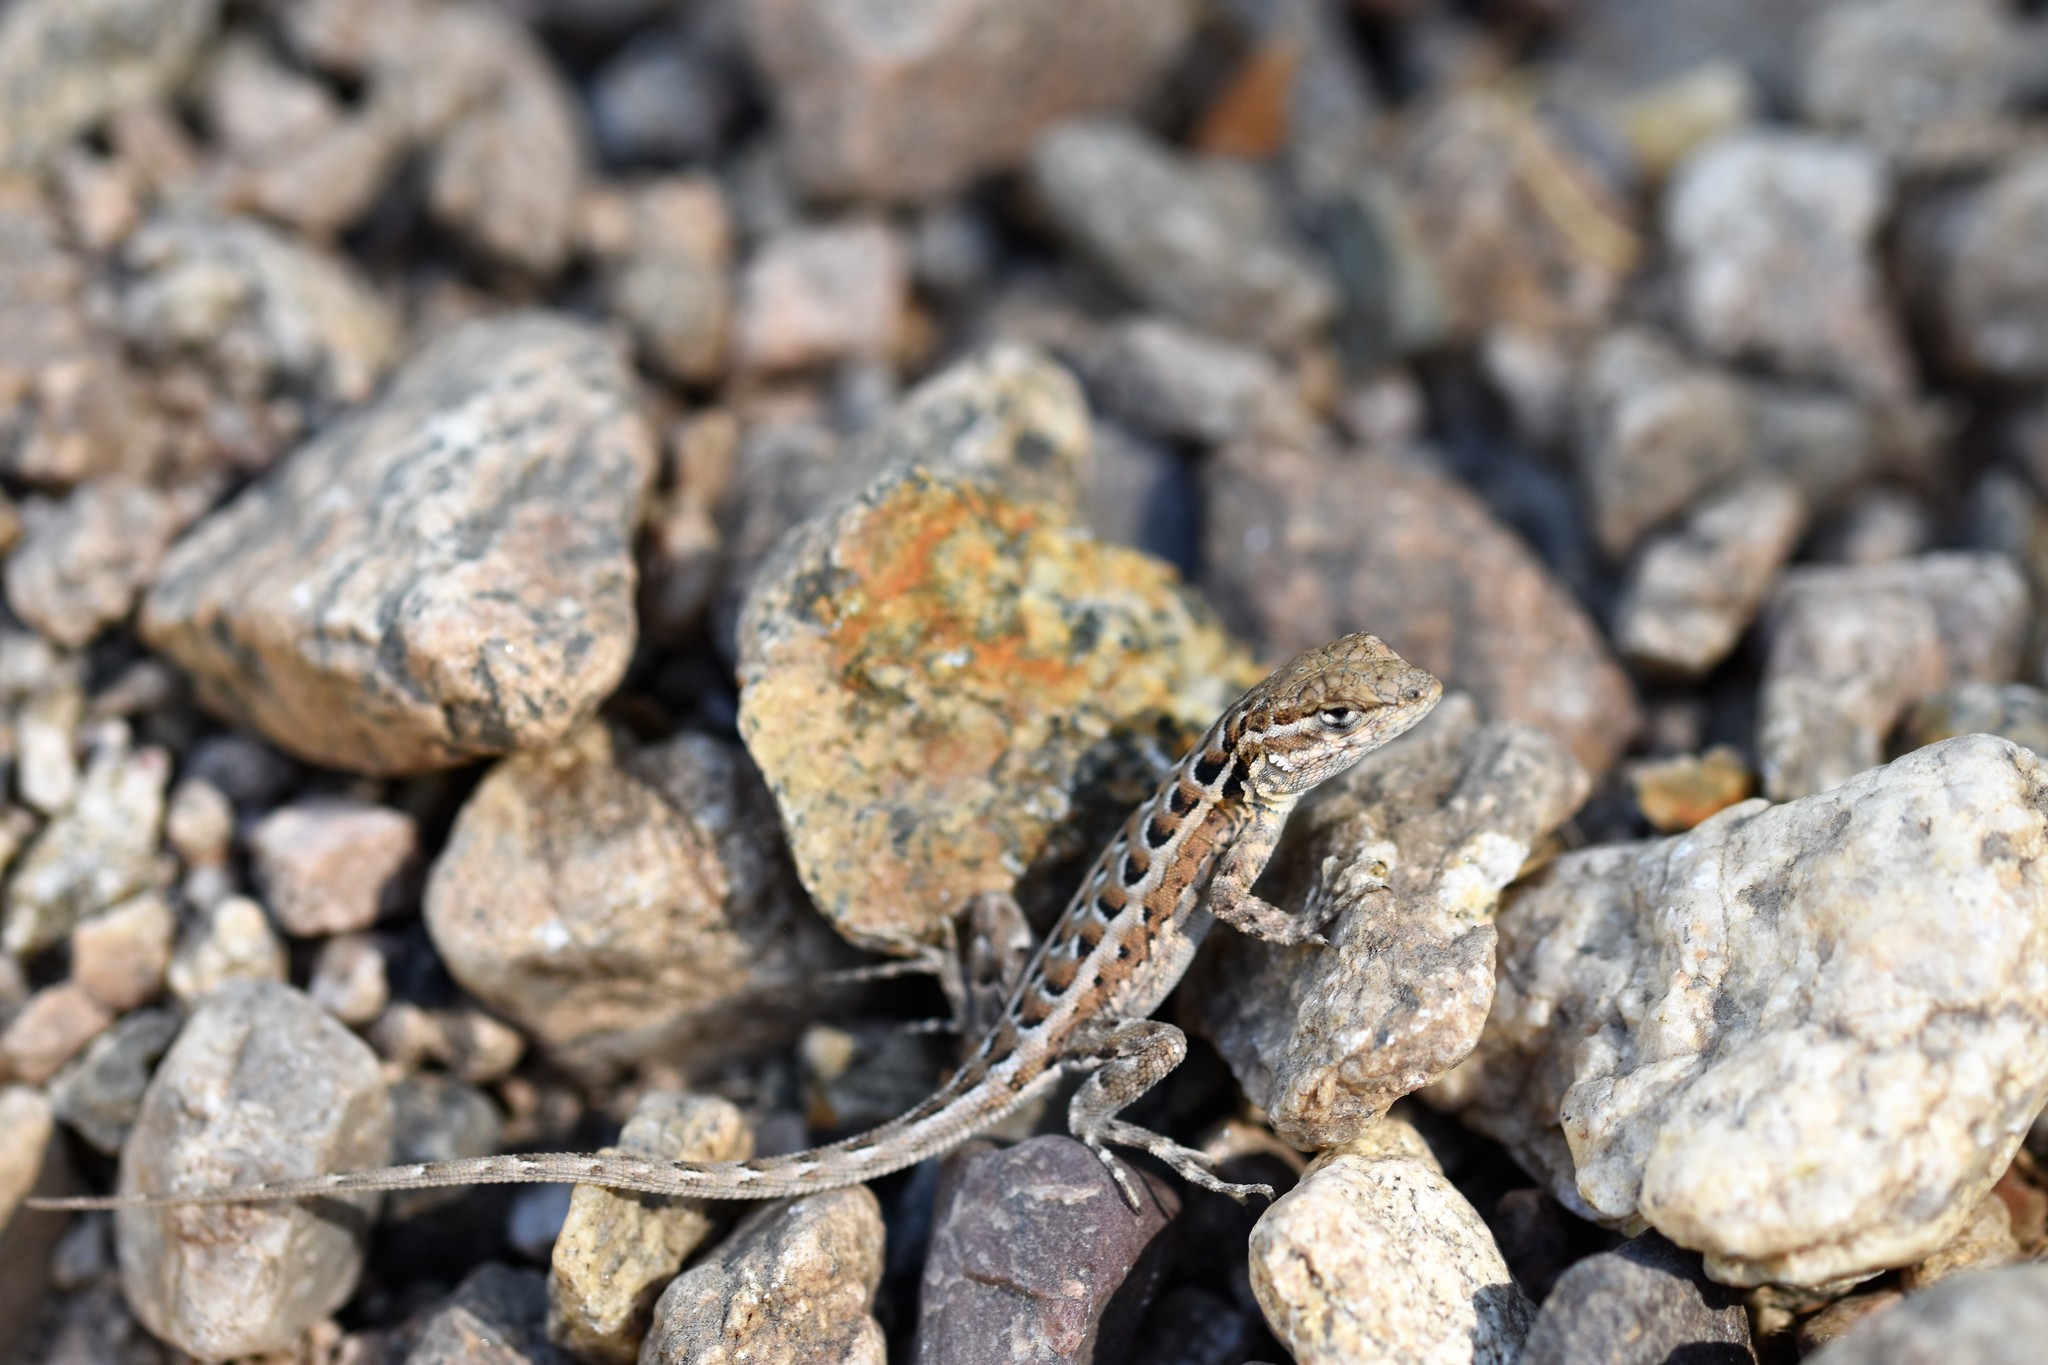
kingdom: Animalia
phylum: Chordata
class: Squamata
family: Phrynosomatidae
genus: Uta
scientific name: Uta stansburiana
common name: Side-blotched lizard
